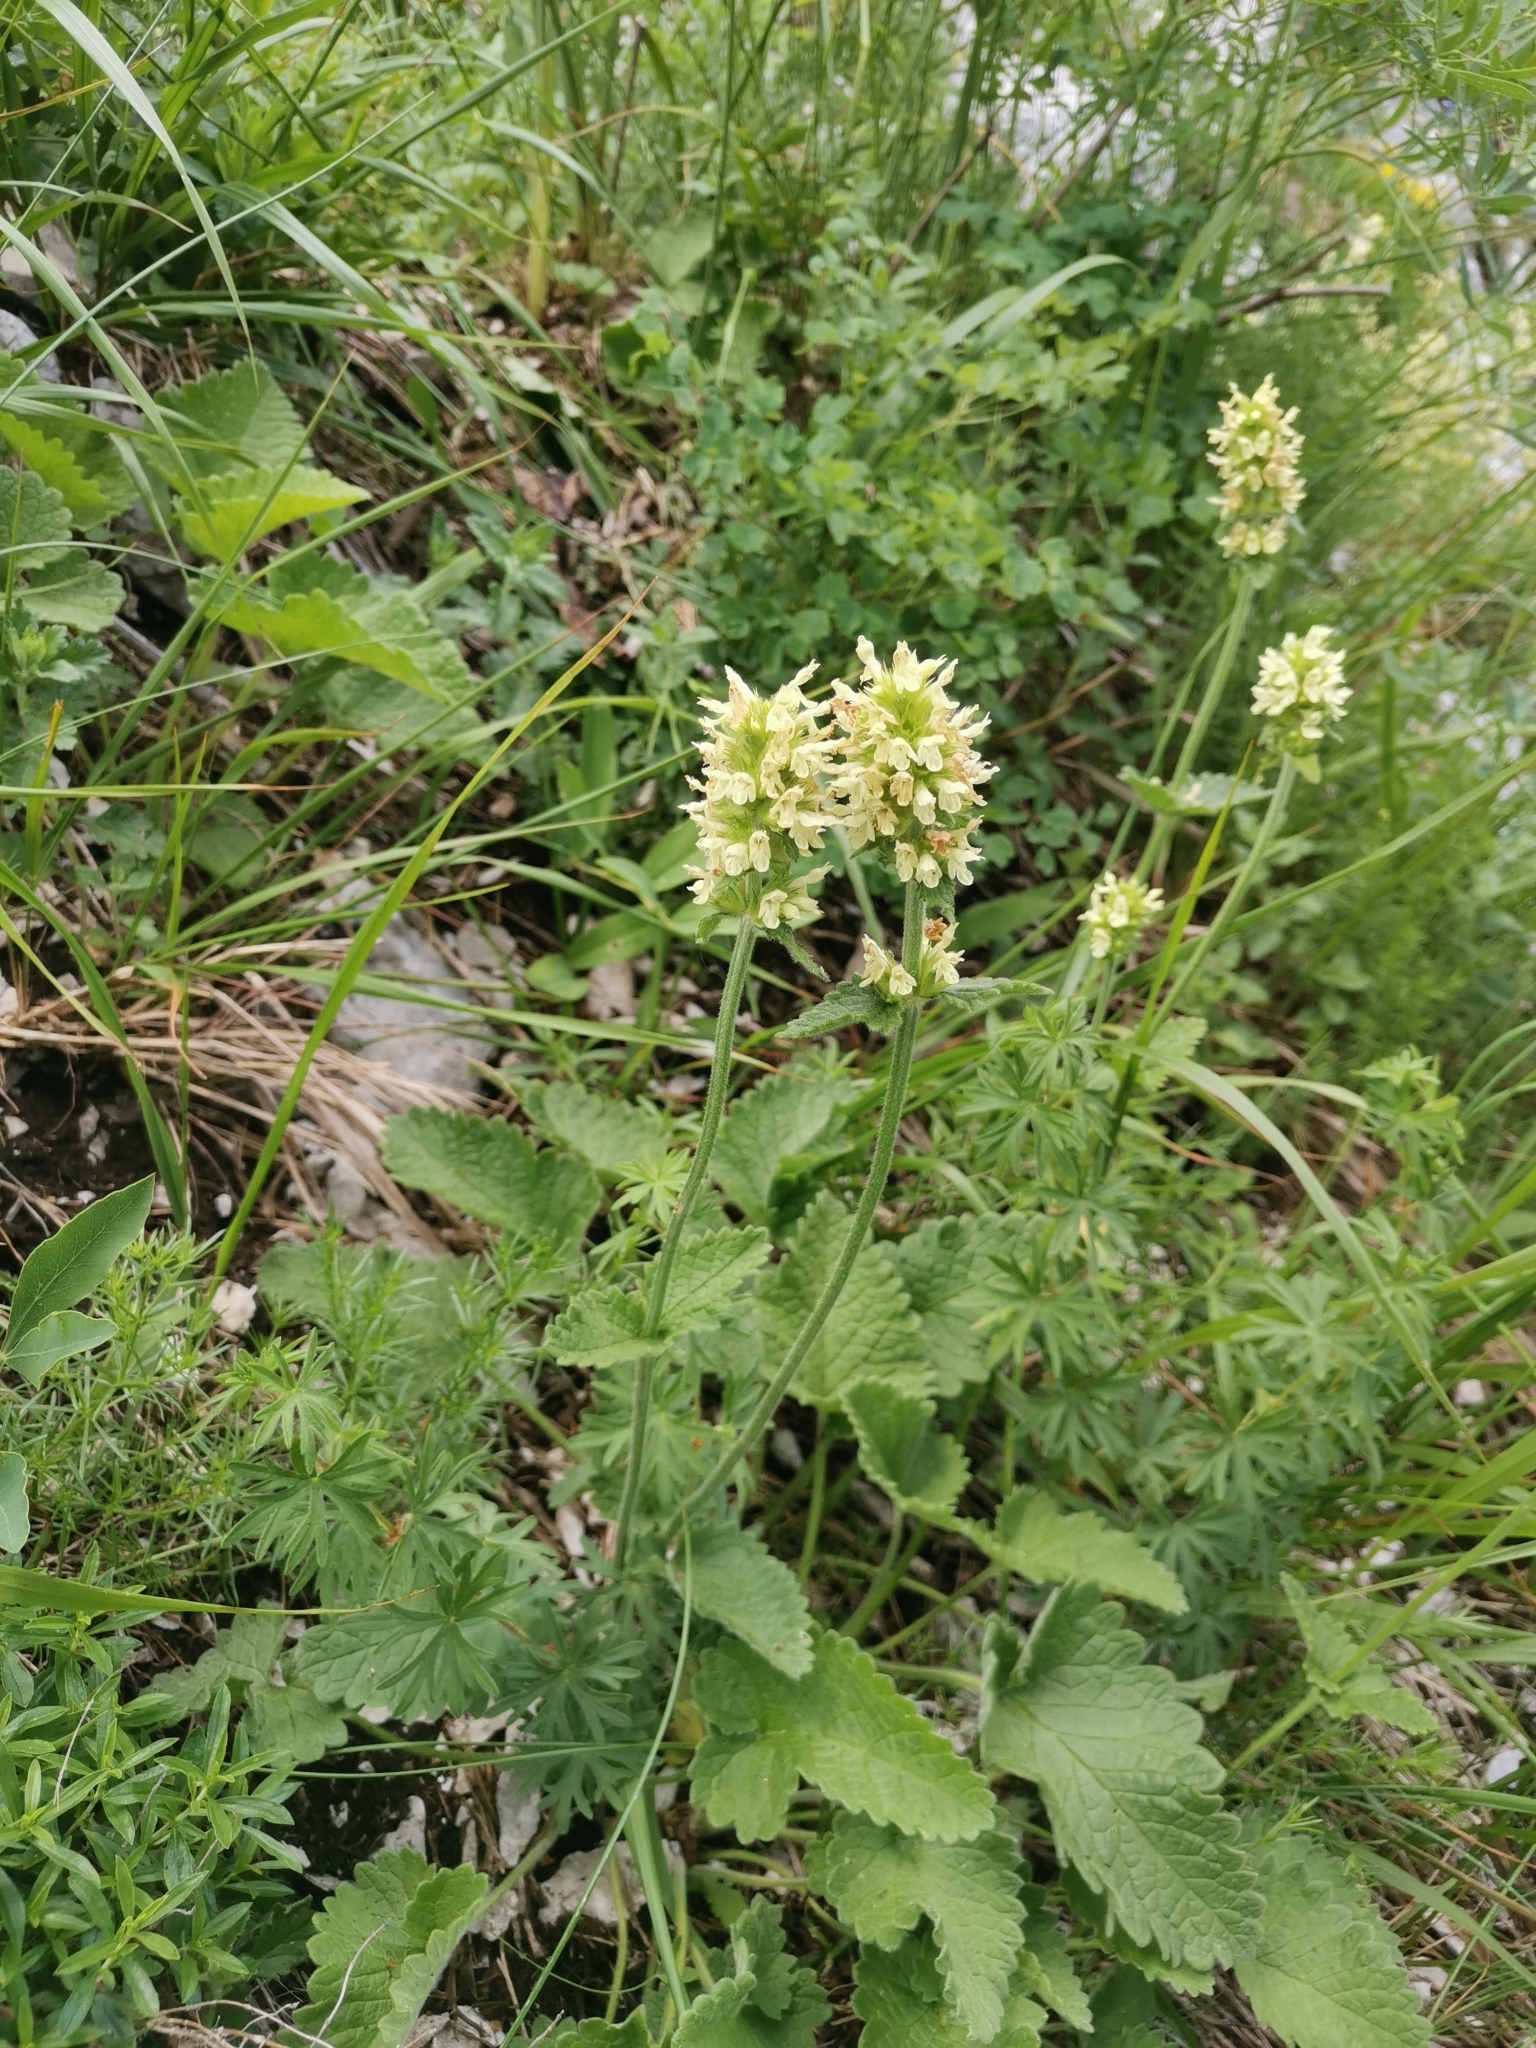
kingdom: Plantae
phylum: Tracheophyta
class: Magnoliopsida
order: Lamiales
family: Lamiaceae
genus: Betonica
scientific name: Betonica alopecuros
